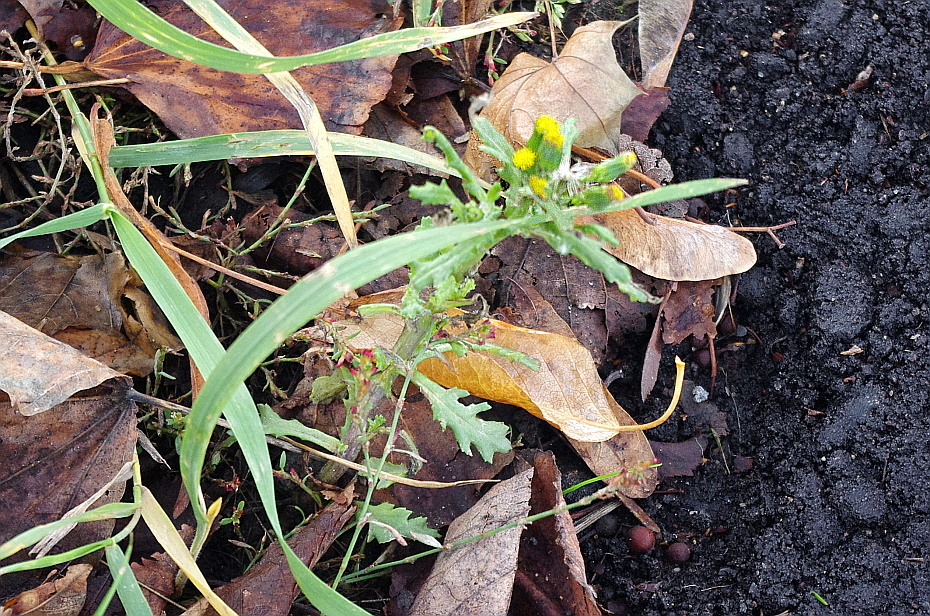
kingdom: Plantae
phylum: Tracheophyta
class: Magnoliopsida
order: Asterales
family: Asteraceae
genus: Senecio
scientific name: Senecio vulgaris
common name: Old-man-in-the-spring
